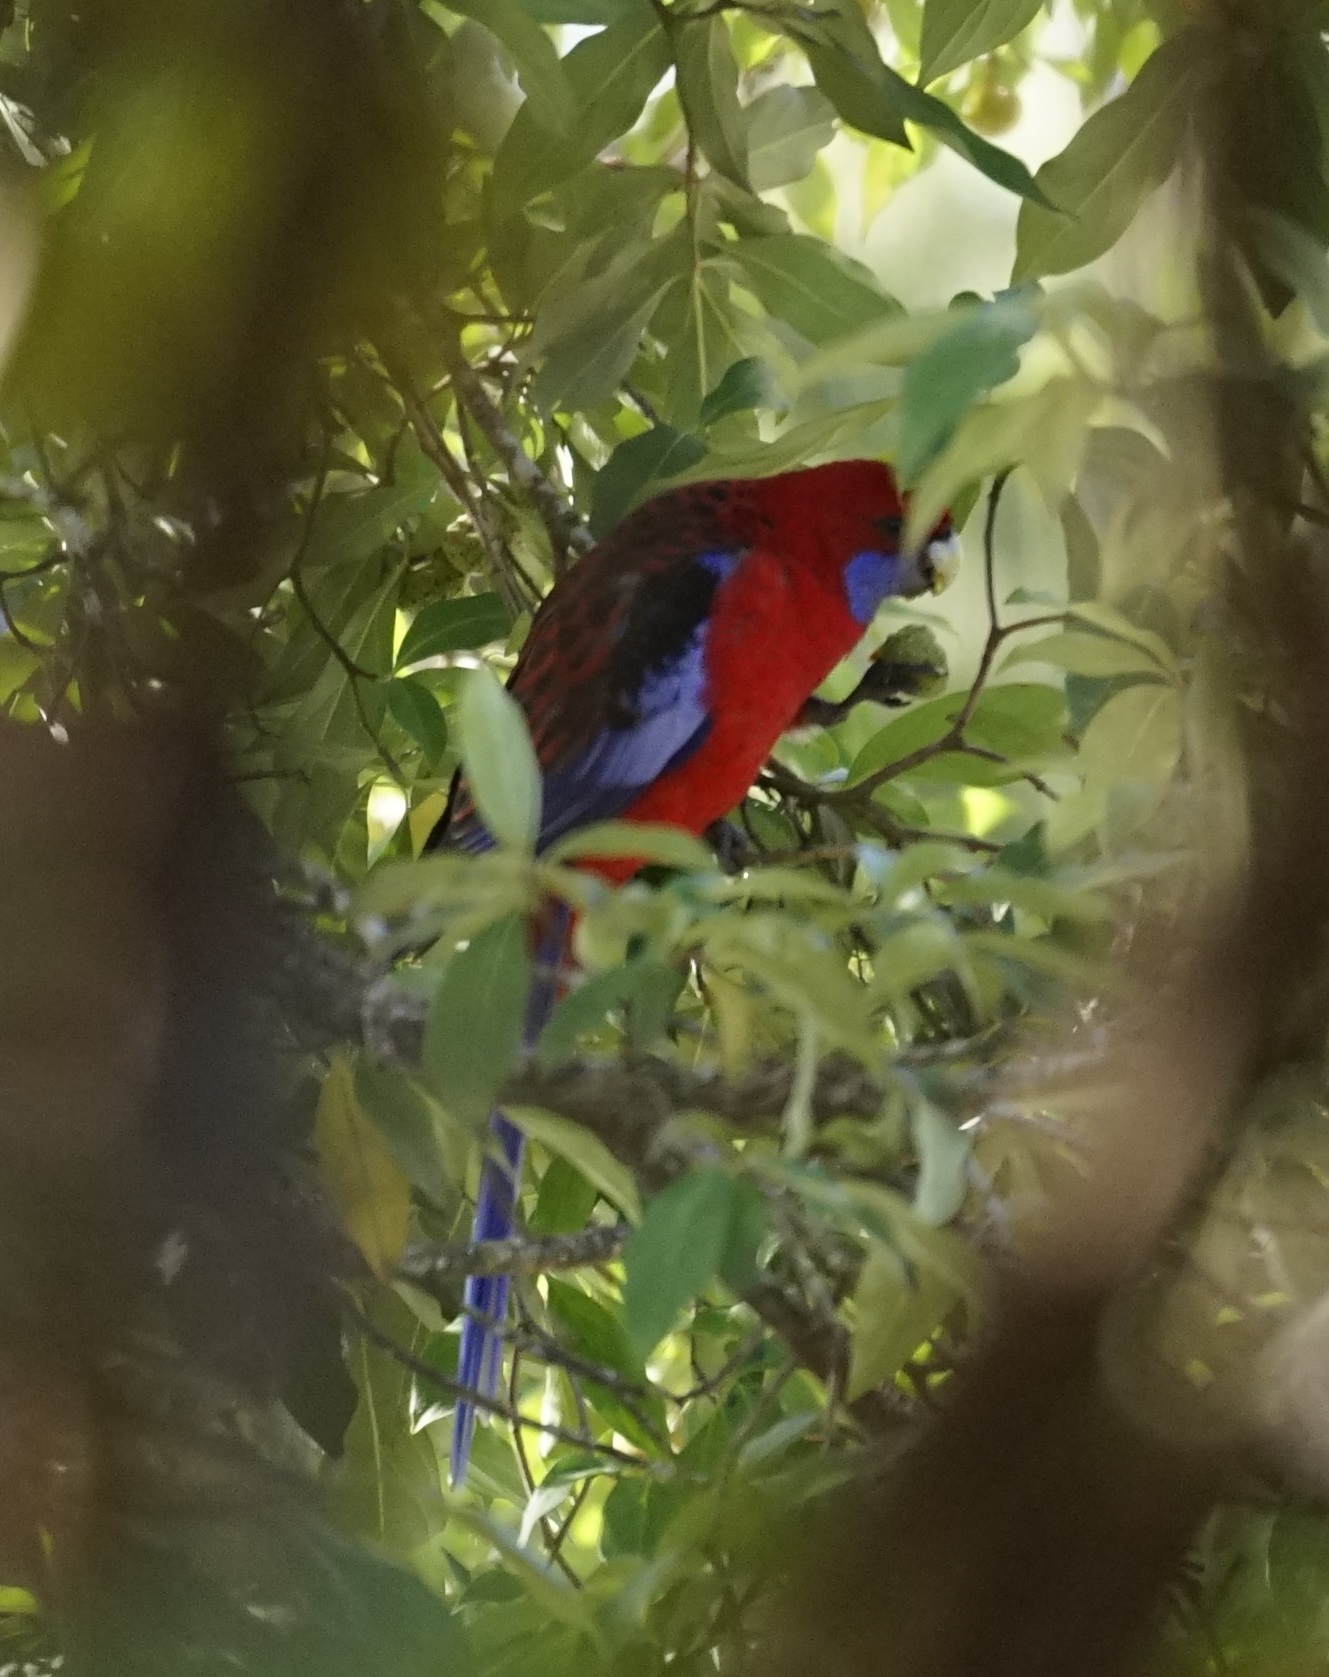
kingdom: Animalia
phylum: Chordata
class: Aves
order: Psittaciformes
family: Psittacidae
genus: Platycercus
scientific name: Platycercus elegans
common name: Crimson rosella
